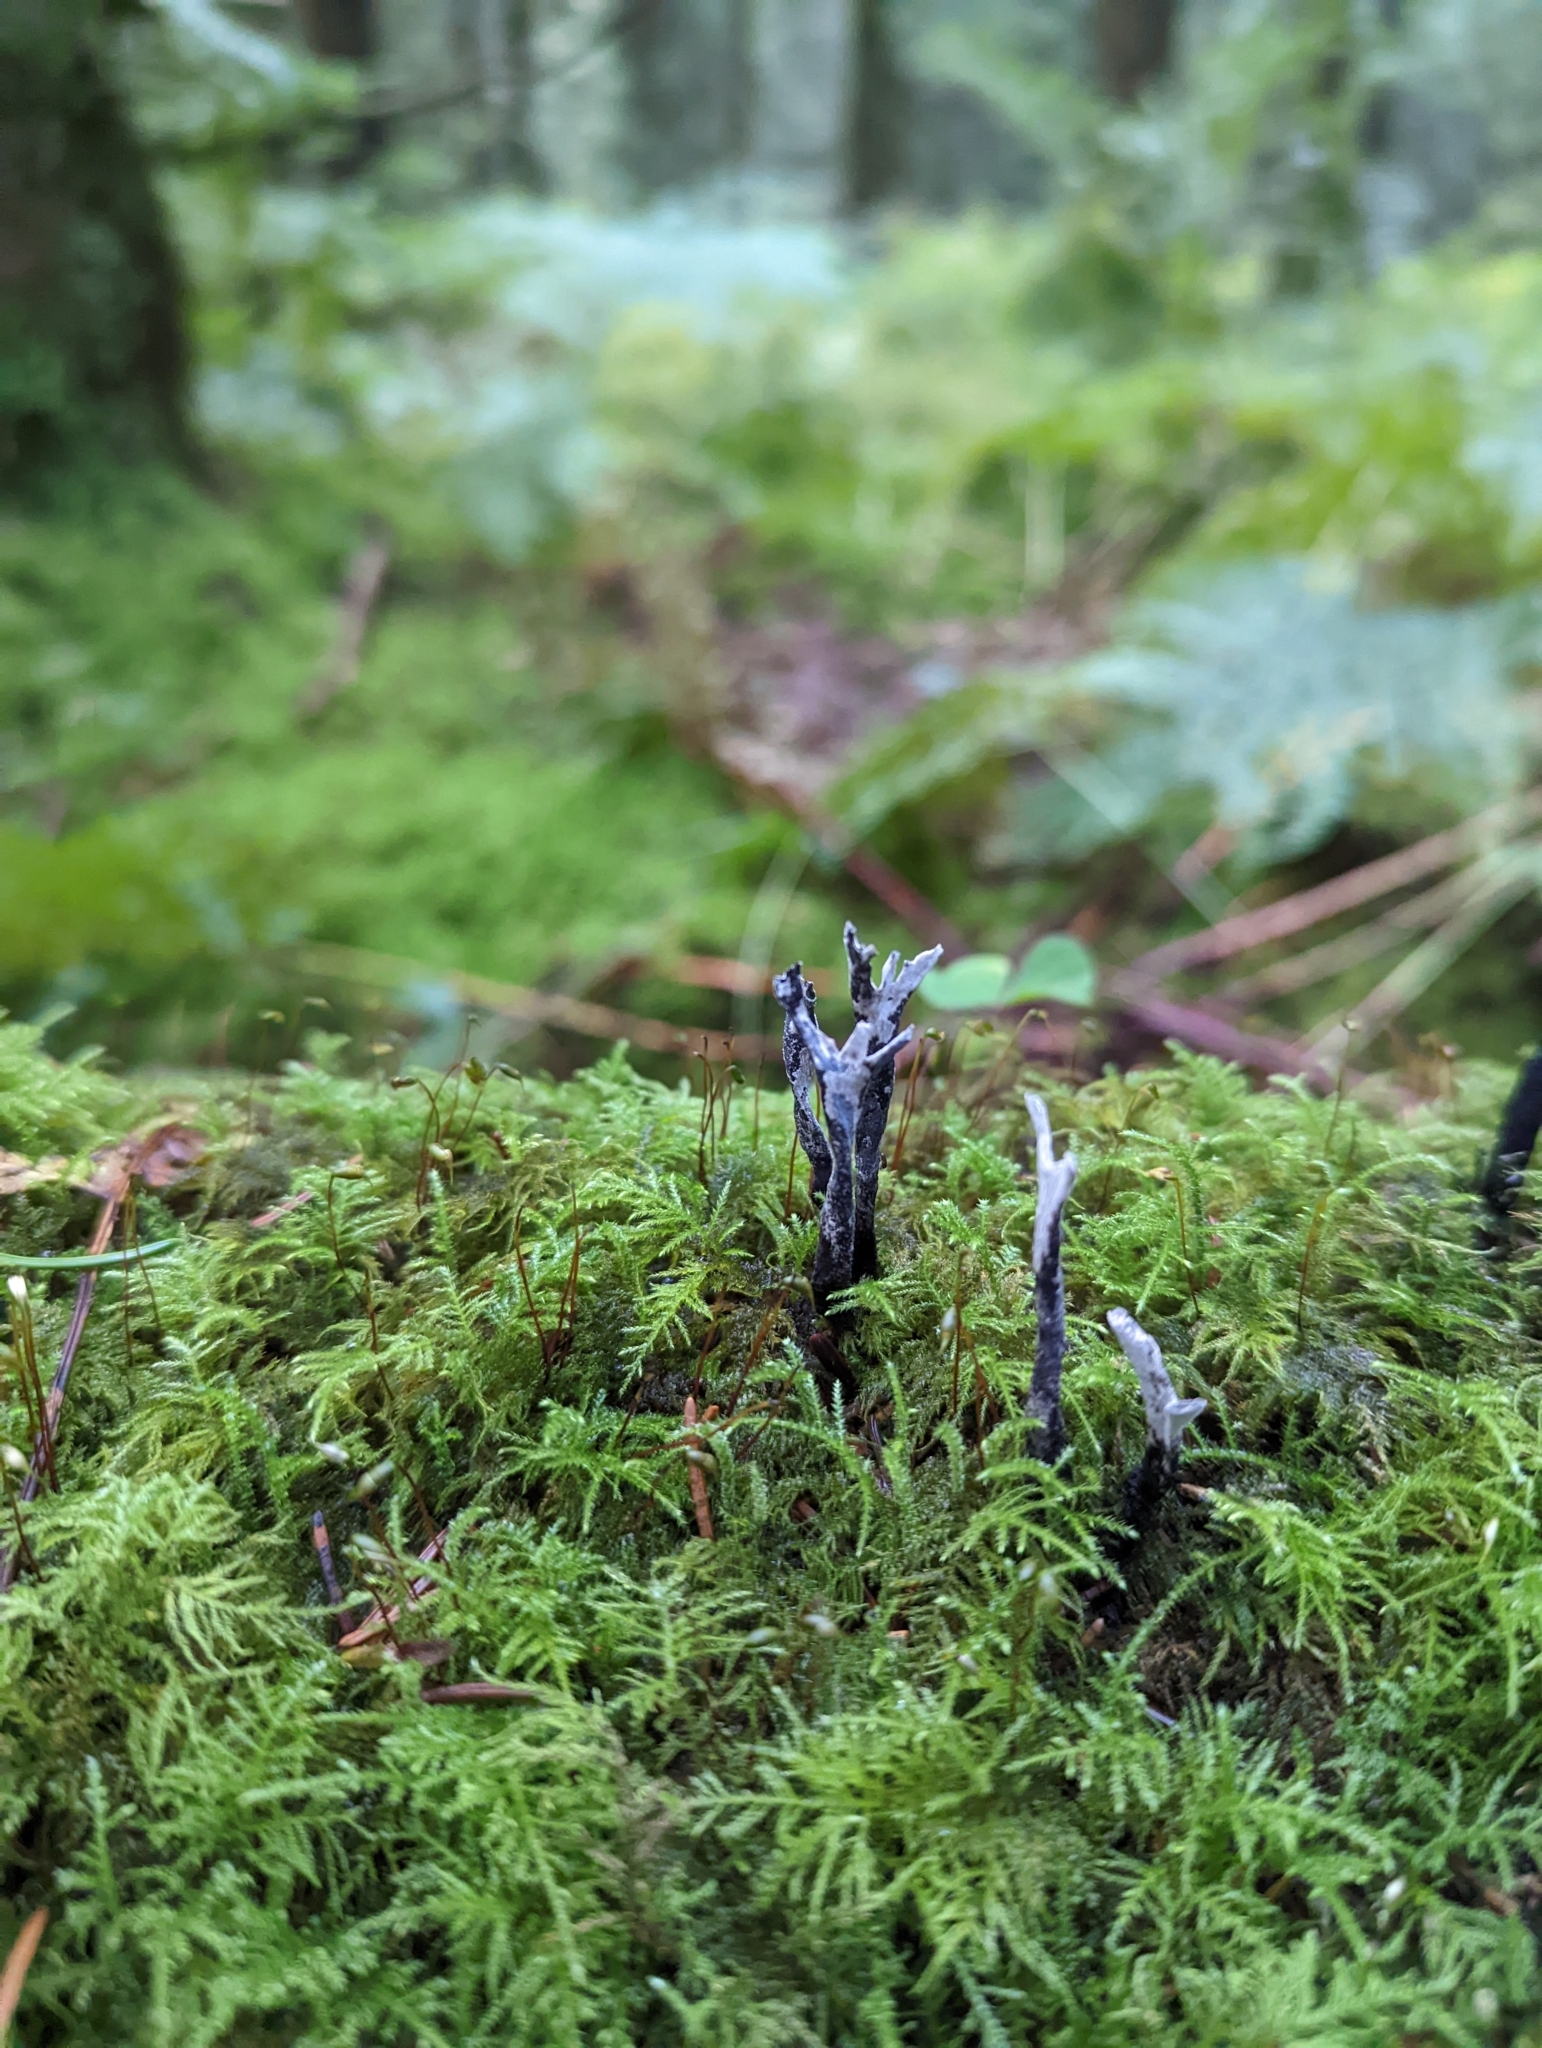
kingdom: Fungi
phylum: Ascomycota
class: Sordariomycetes
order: Xylariales
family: Xylariaceae
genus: Xylaria
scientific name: Xylaria hypoxylon
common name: Candle-snuff fungus
